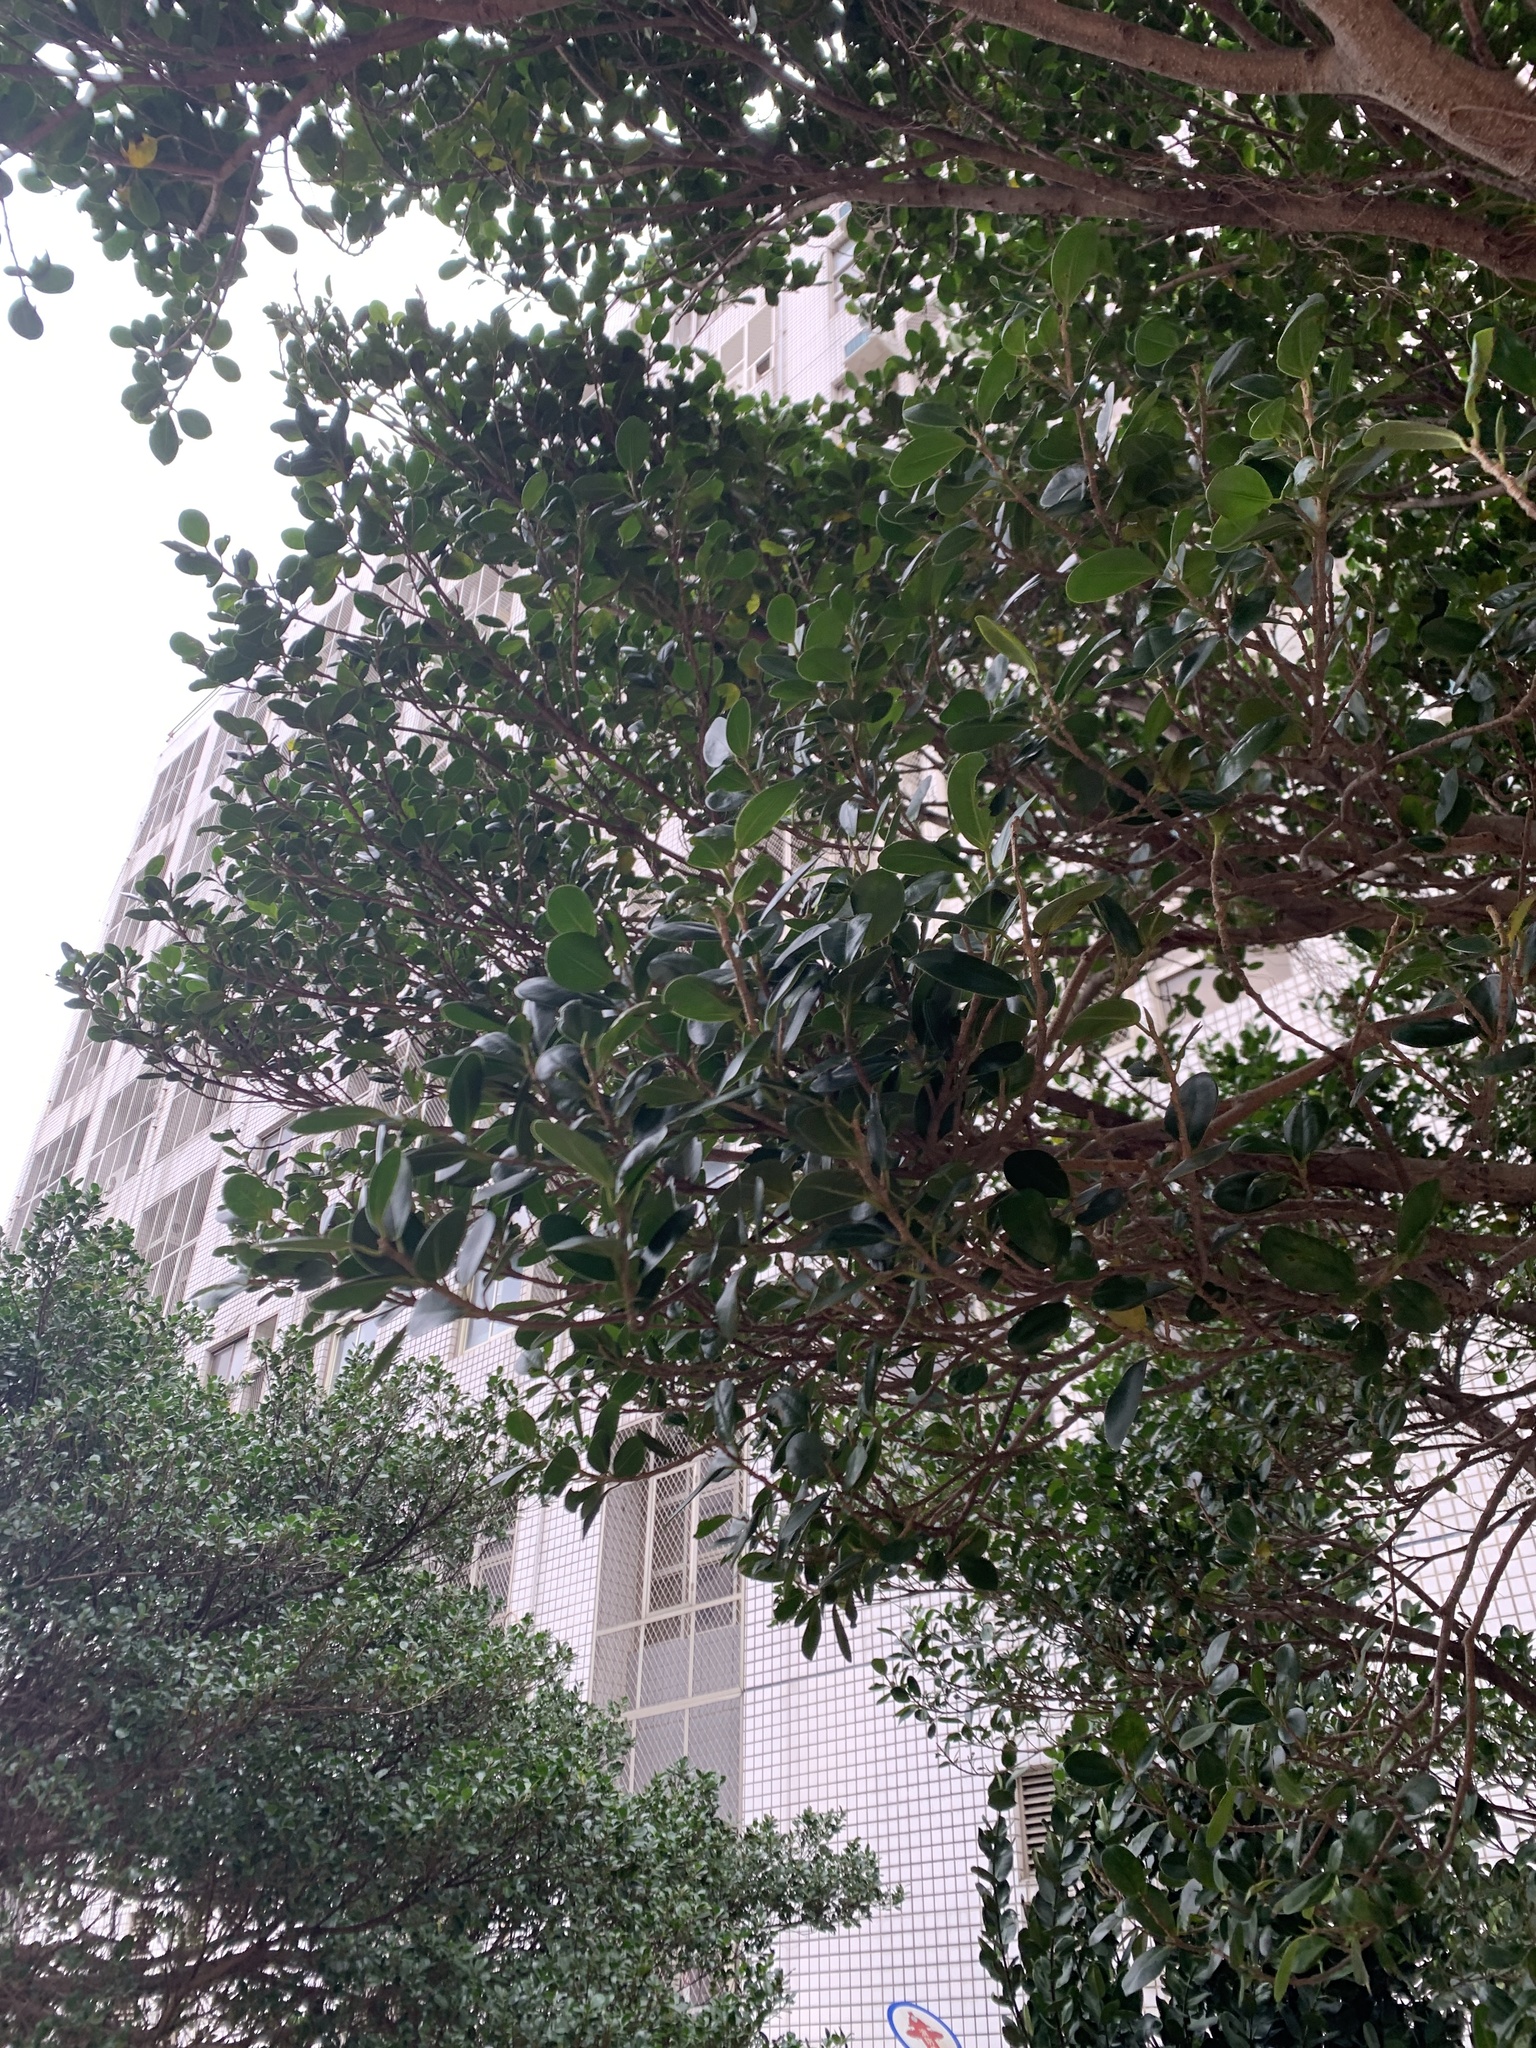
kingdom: Plantae
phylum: Tracheophyta
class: Magnoliopsida
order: Rosales
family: Moraceae
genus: Ficus
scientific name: Ficus microcarpa
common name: Chinese banyan
